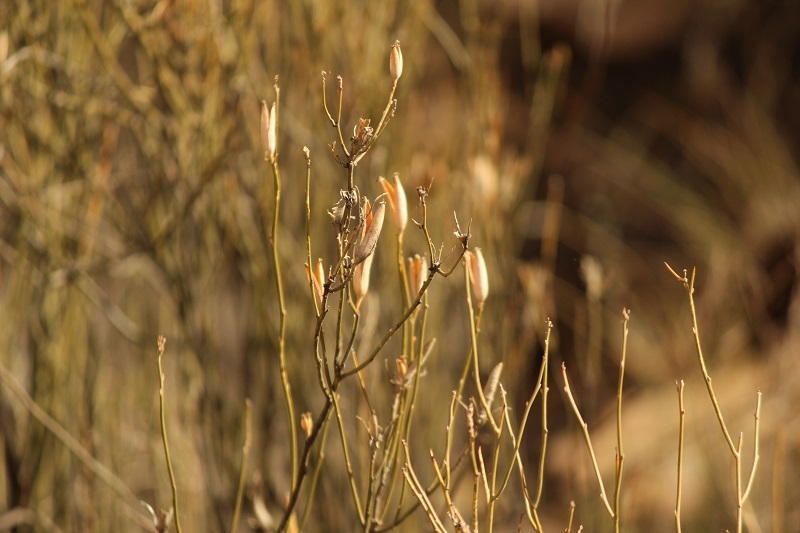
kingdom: Plantae
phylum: Tracheophyta
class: Magnoliopsida
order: Solanales
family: Montiniaceae
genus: Montinia
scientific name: Montinia caryophyllacea
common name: Wild clove-bush
